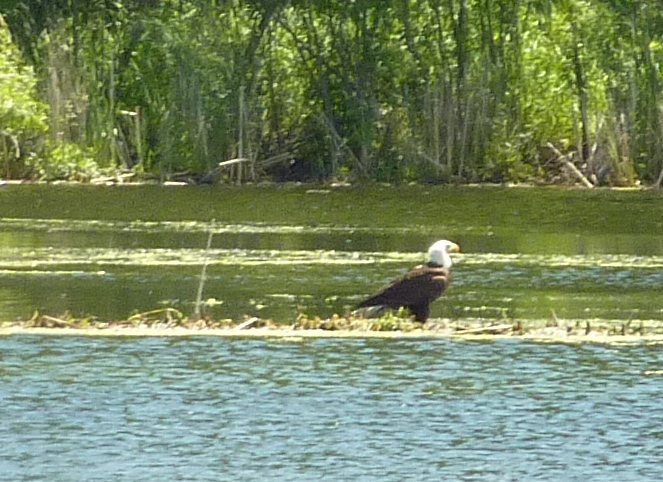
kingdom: Animalia
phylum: Chordata
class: Aves
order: Accipitriformes
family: Accipitridae
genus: Haliaeetus
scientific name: Haliaeetus leucocephalus
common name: Bald eagle
